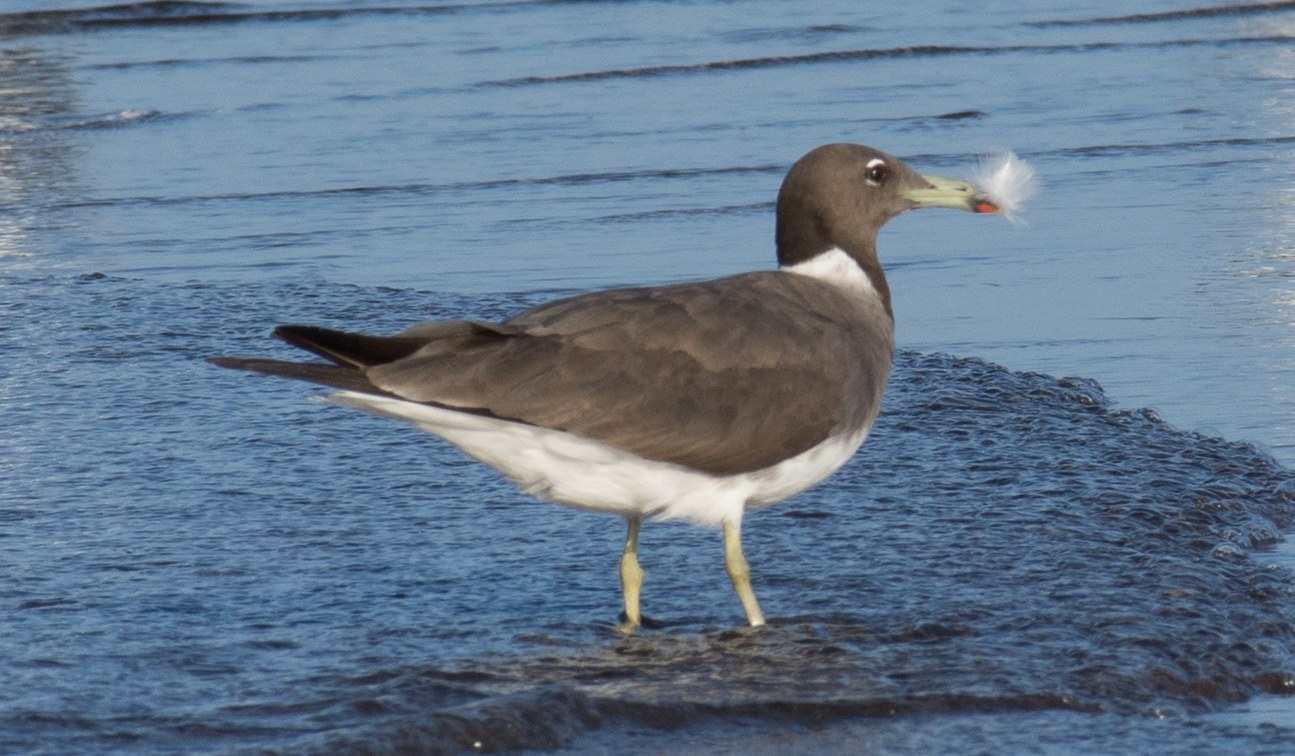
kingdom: Animalia
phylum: Chordata
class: Aves
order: Charadriiformes
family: Laridae
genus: Ichthyaetus
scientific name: Ichthyaetus hemprichii
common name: Sooty gull
